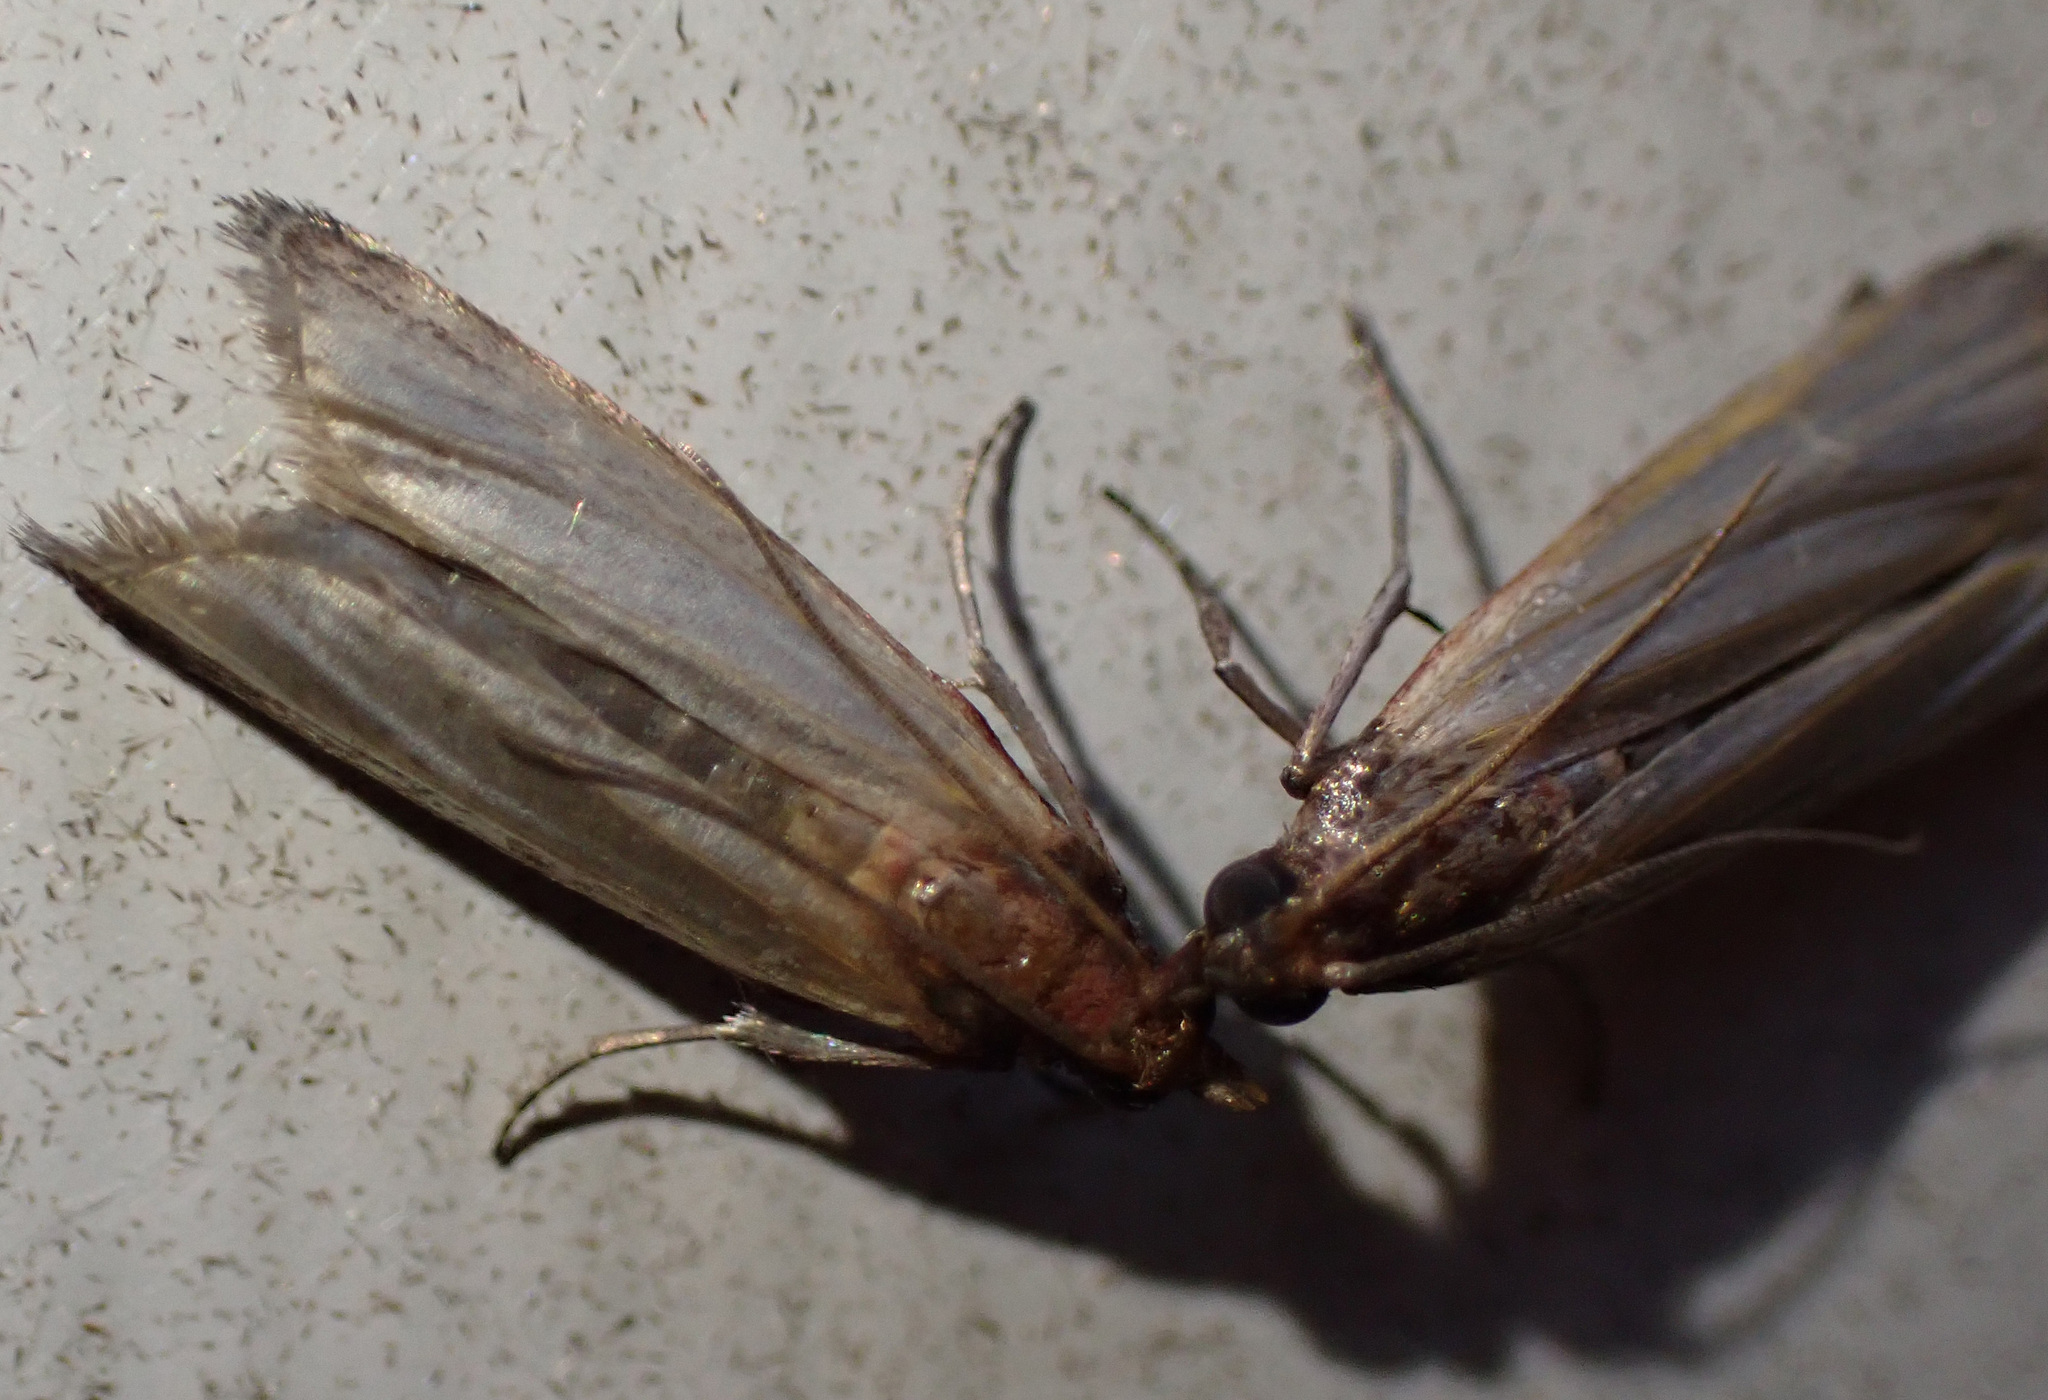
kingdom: Animalia
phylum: Arthropoda
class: Insecta
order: Lepidoptera
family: Pyralidae
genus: Plodia
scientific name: Plodia interpunctella
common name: Indian meal moth
